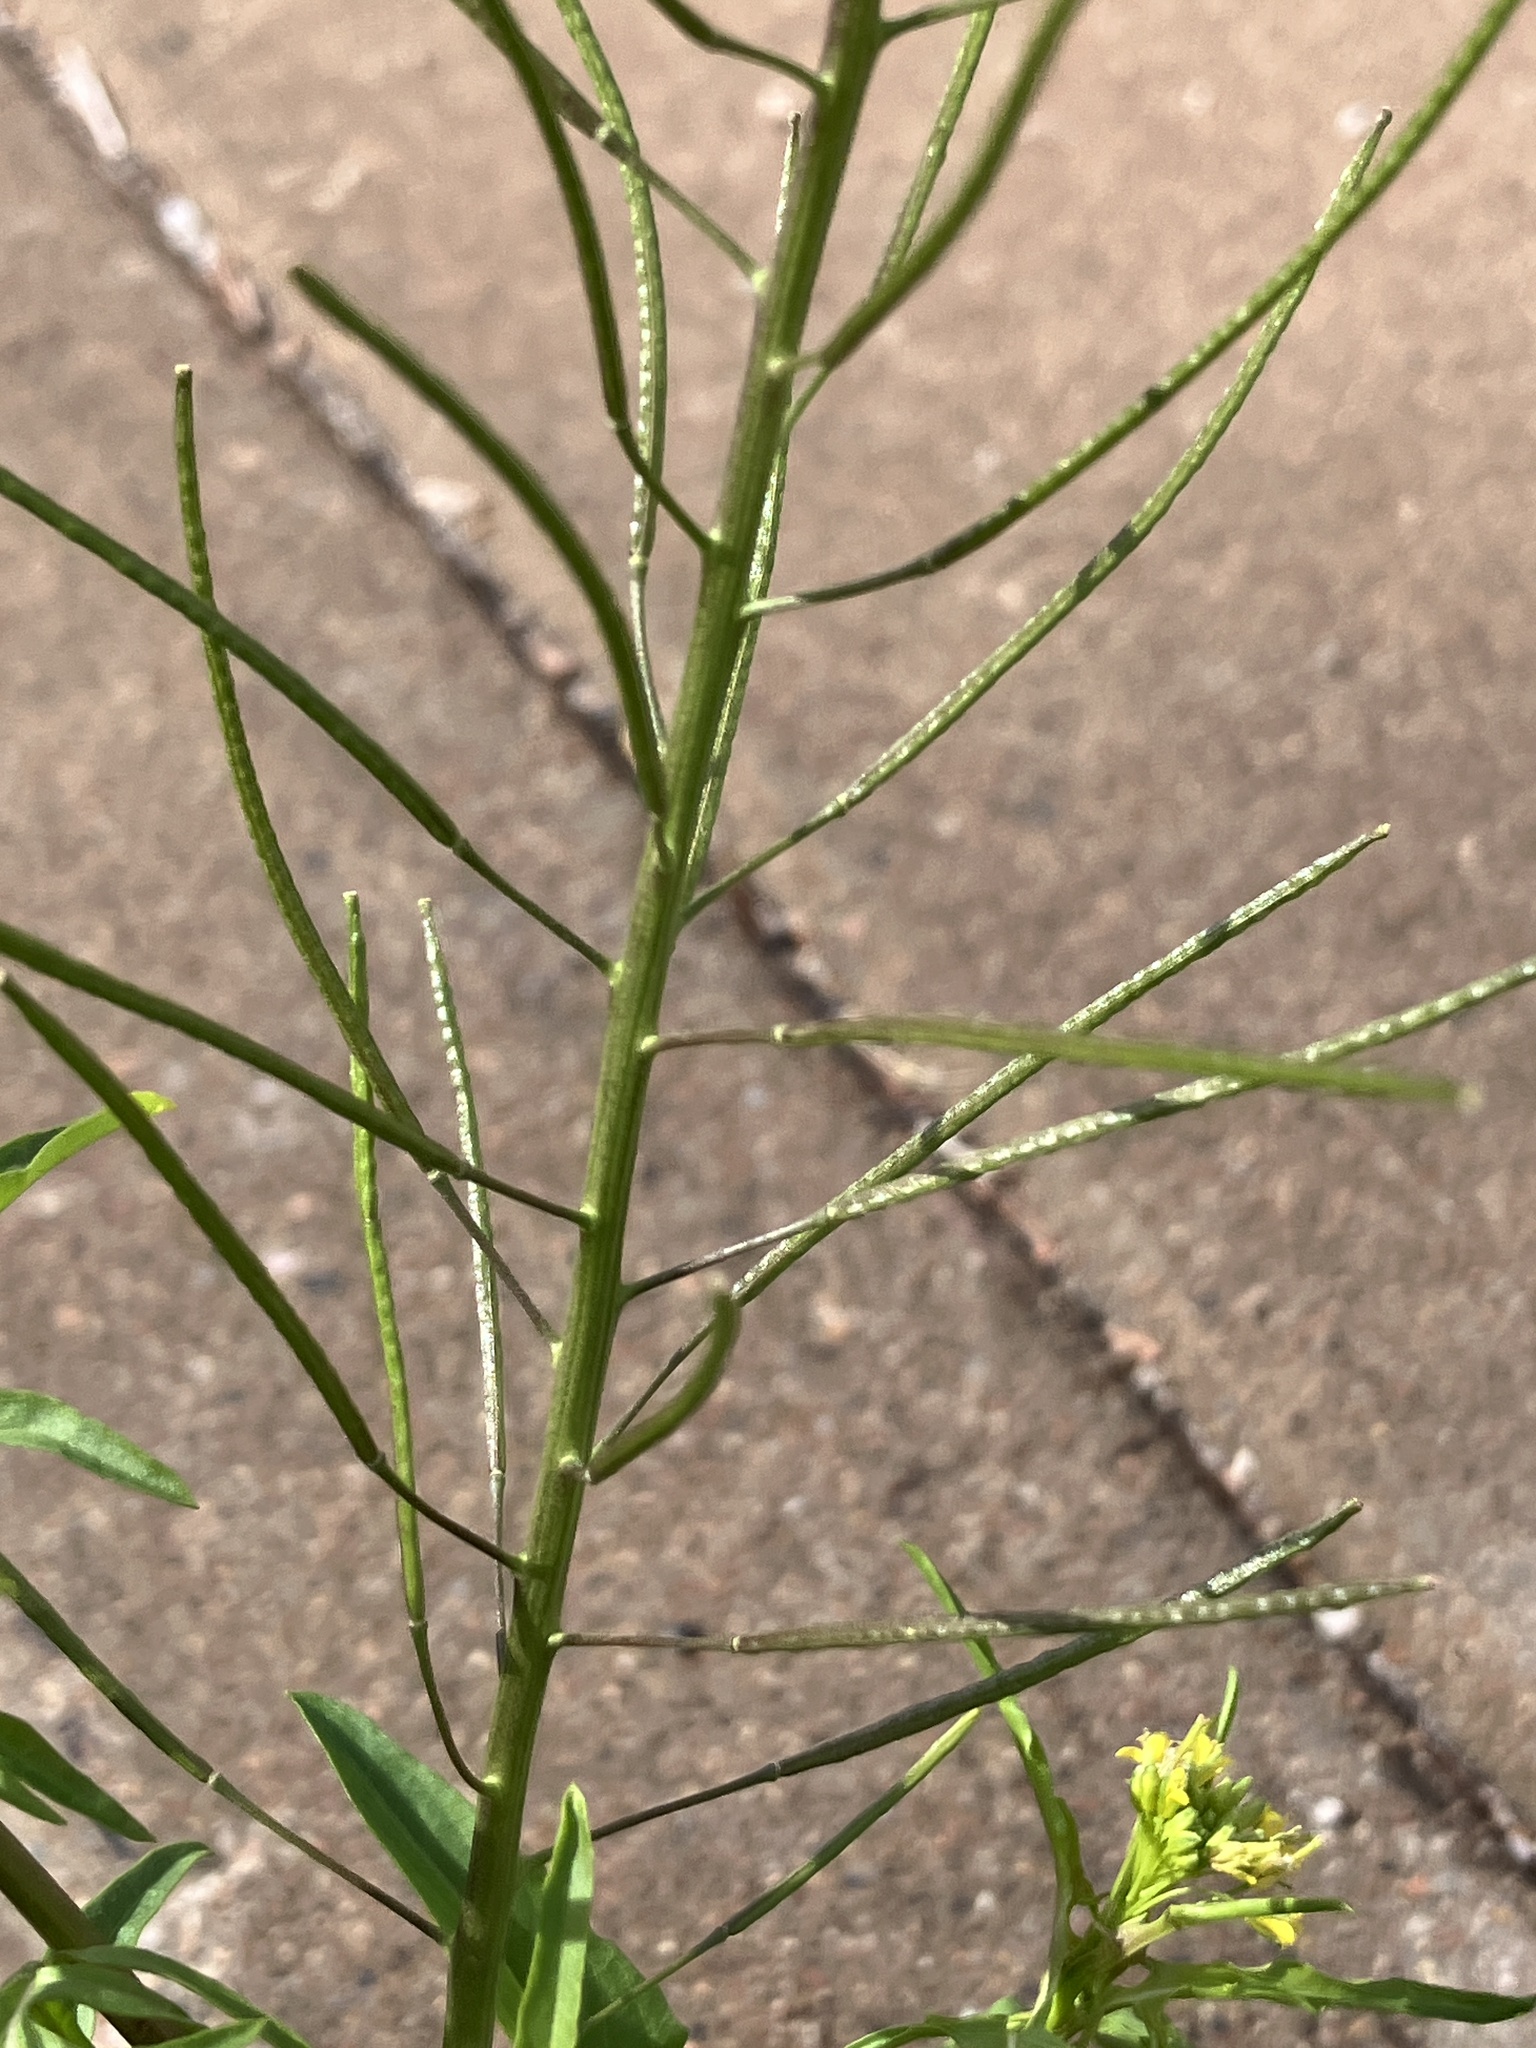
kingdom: Plantae
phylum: Tracheophyta
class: Magnoliopsida
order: Brassicales
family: Brassicaceae
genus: Sisymbrium
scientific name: Sisymbrium irio
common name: London rocket
